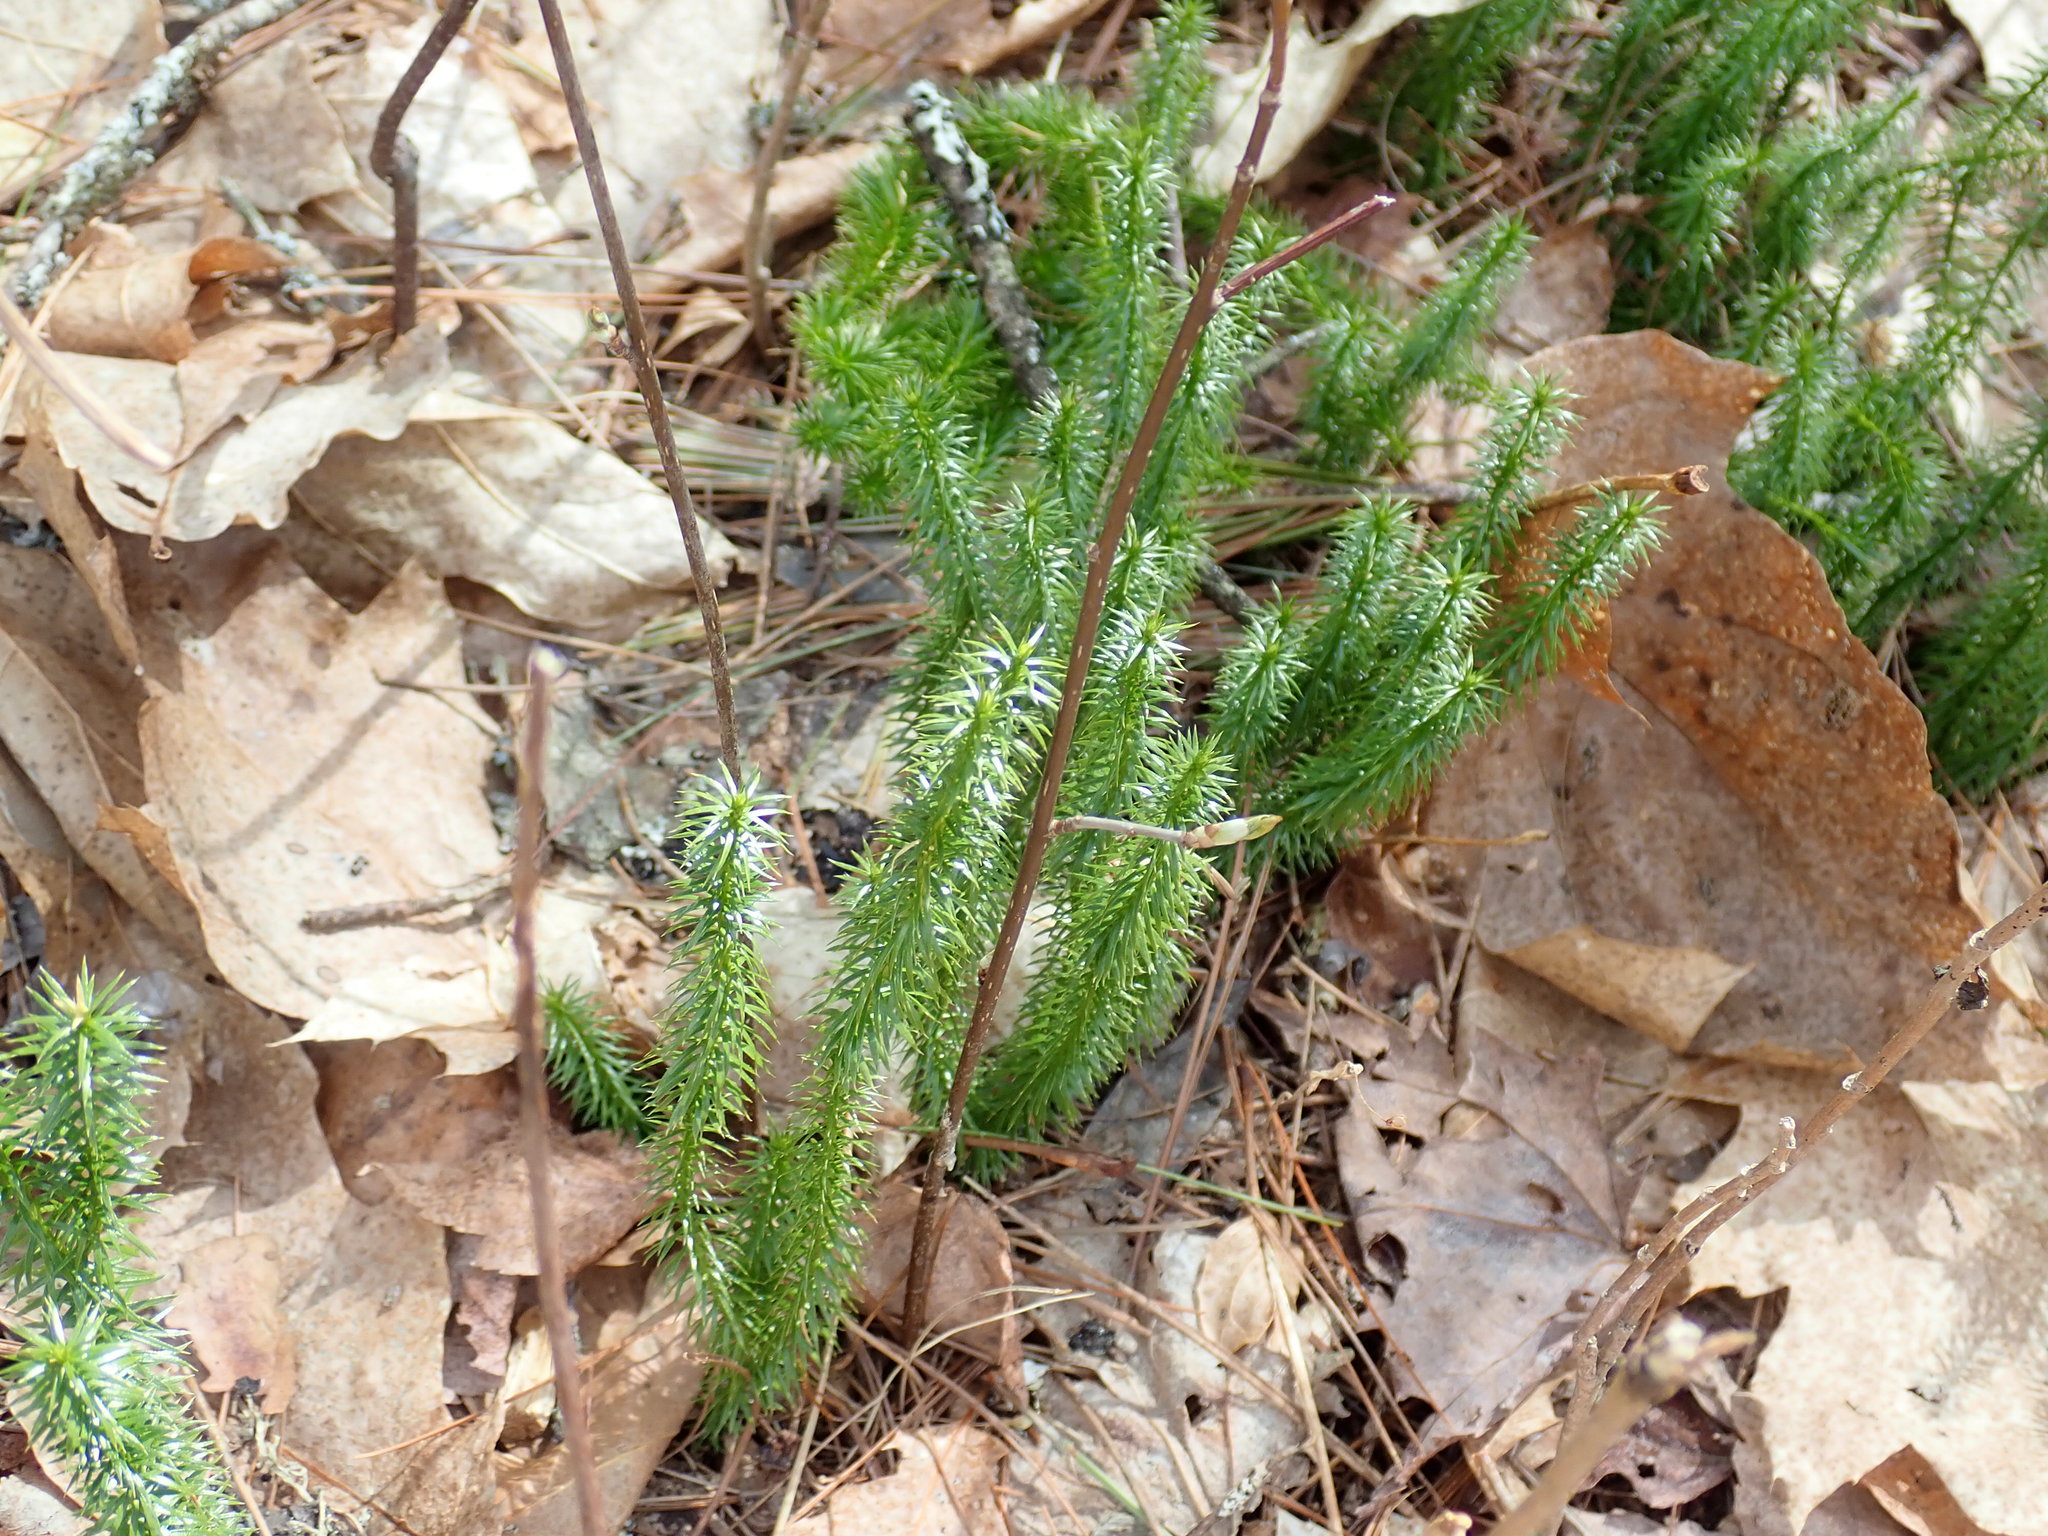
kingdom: Plantae
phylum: Tracheophyta
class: Lycopodiopsida
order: Lycopodiales
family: Lycopodiaceae
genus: Spinulum
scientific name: Spinulum annotinum
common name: Interrupted club-moss
